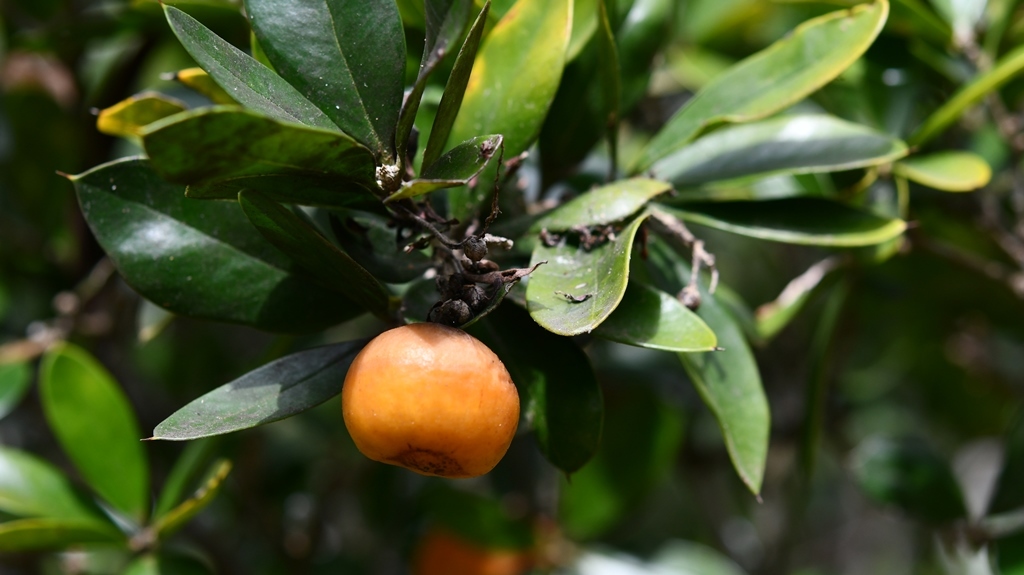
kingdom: Plantae
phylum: Tracheophyta
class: Magnoliopsida
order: Ericales
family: Primulaceae
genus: Bonellia
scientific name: Bonellia macrocarpa
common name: Primrose
